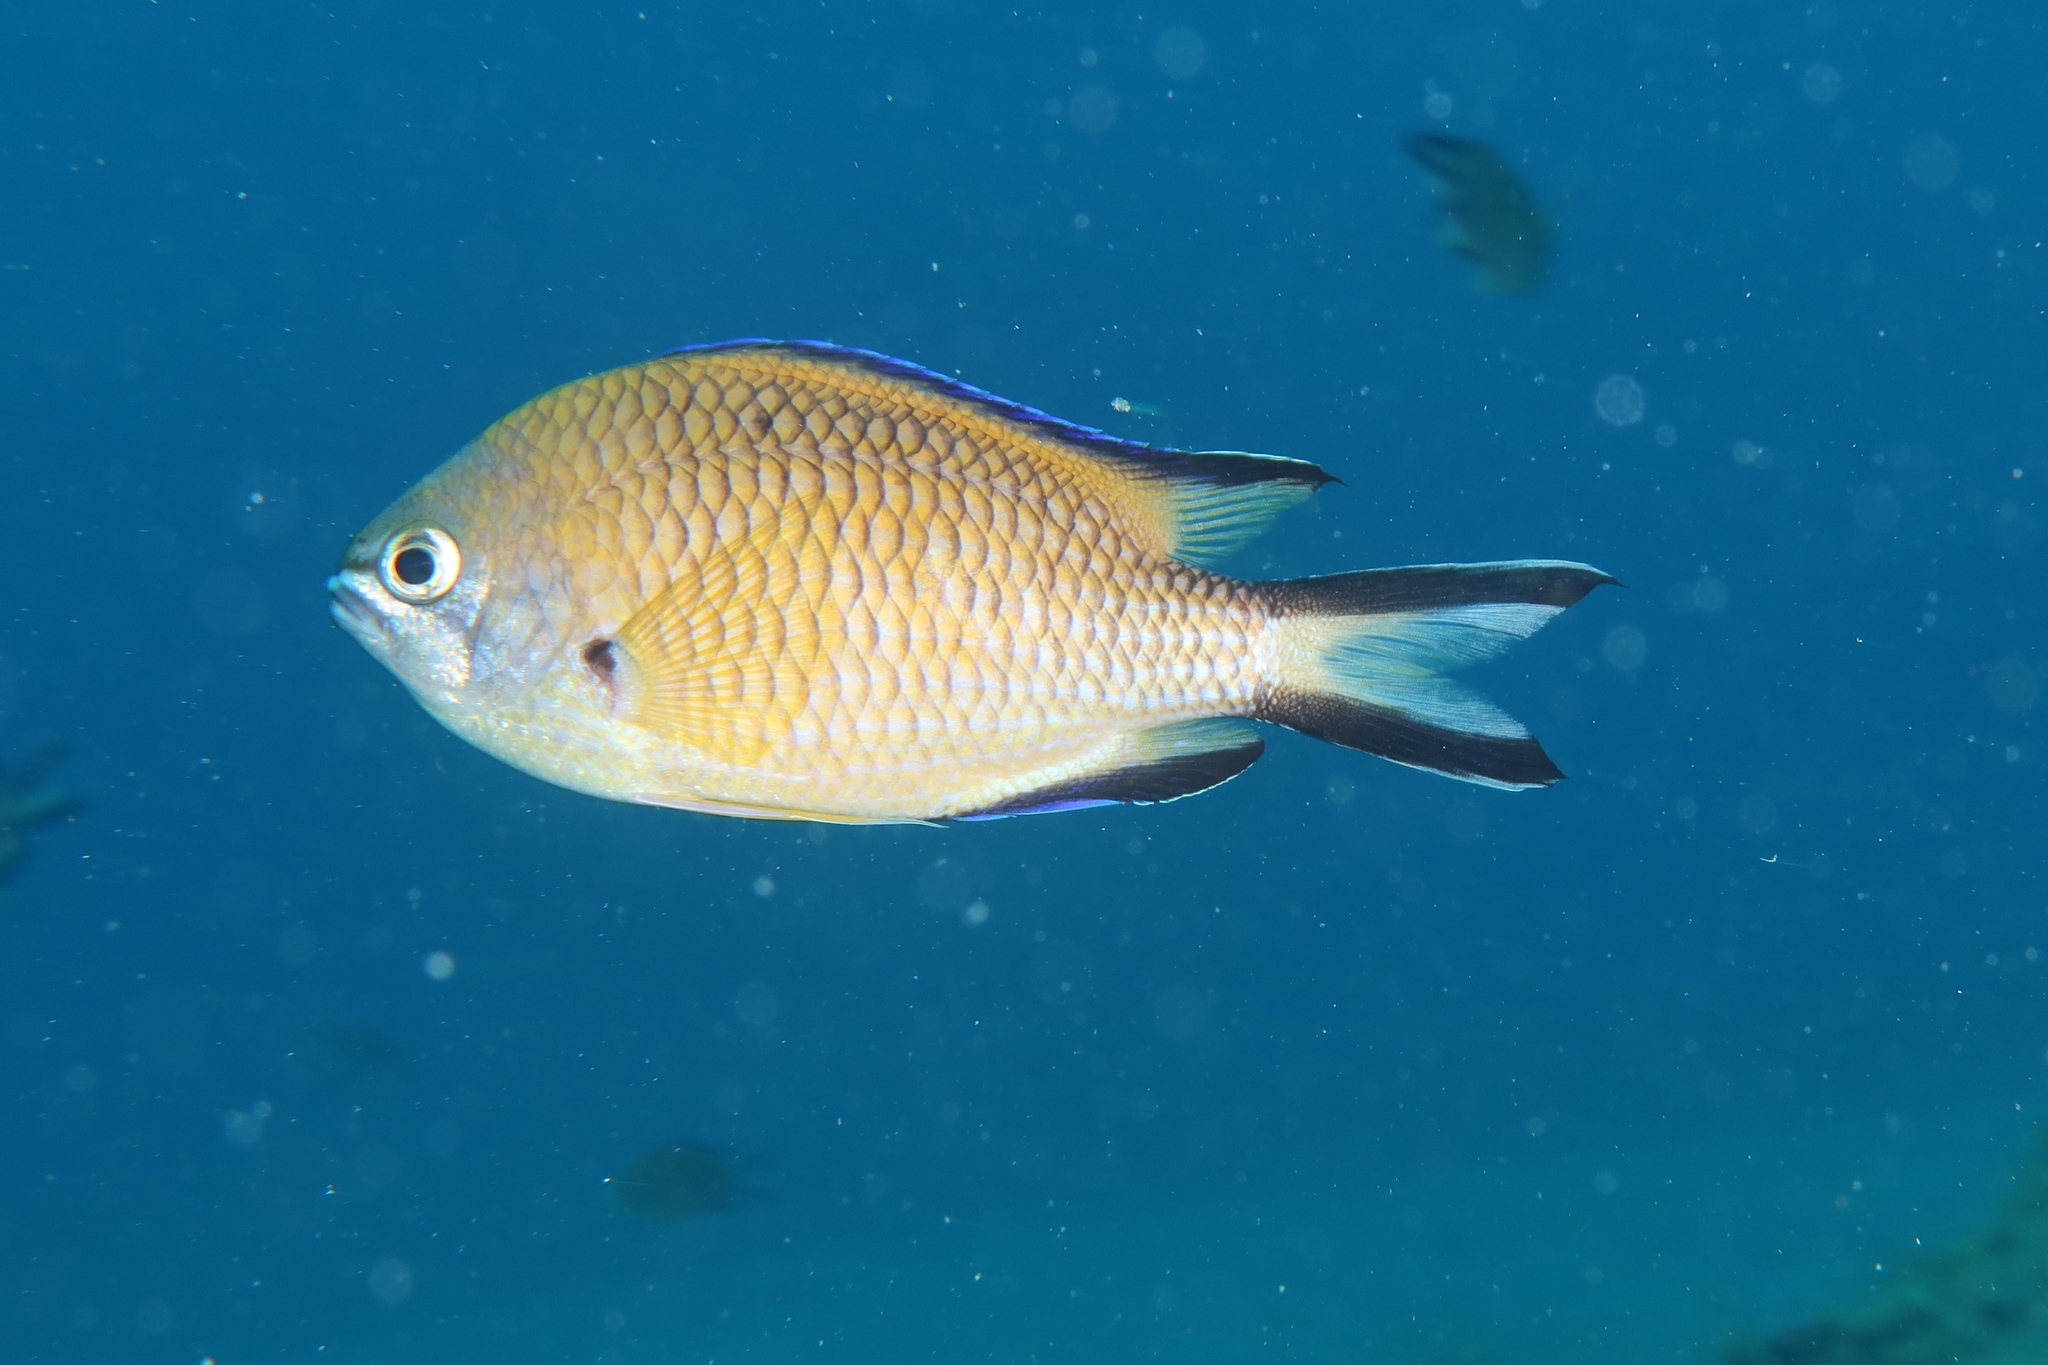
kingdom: Animalia
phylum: Chordata
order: Perciformes
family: Pomacentridae
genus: Chromis
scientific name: Chromis limbata
